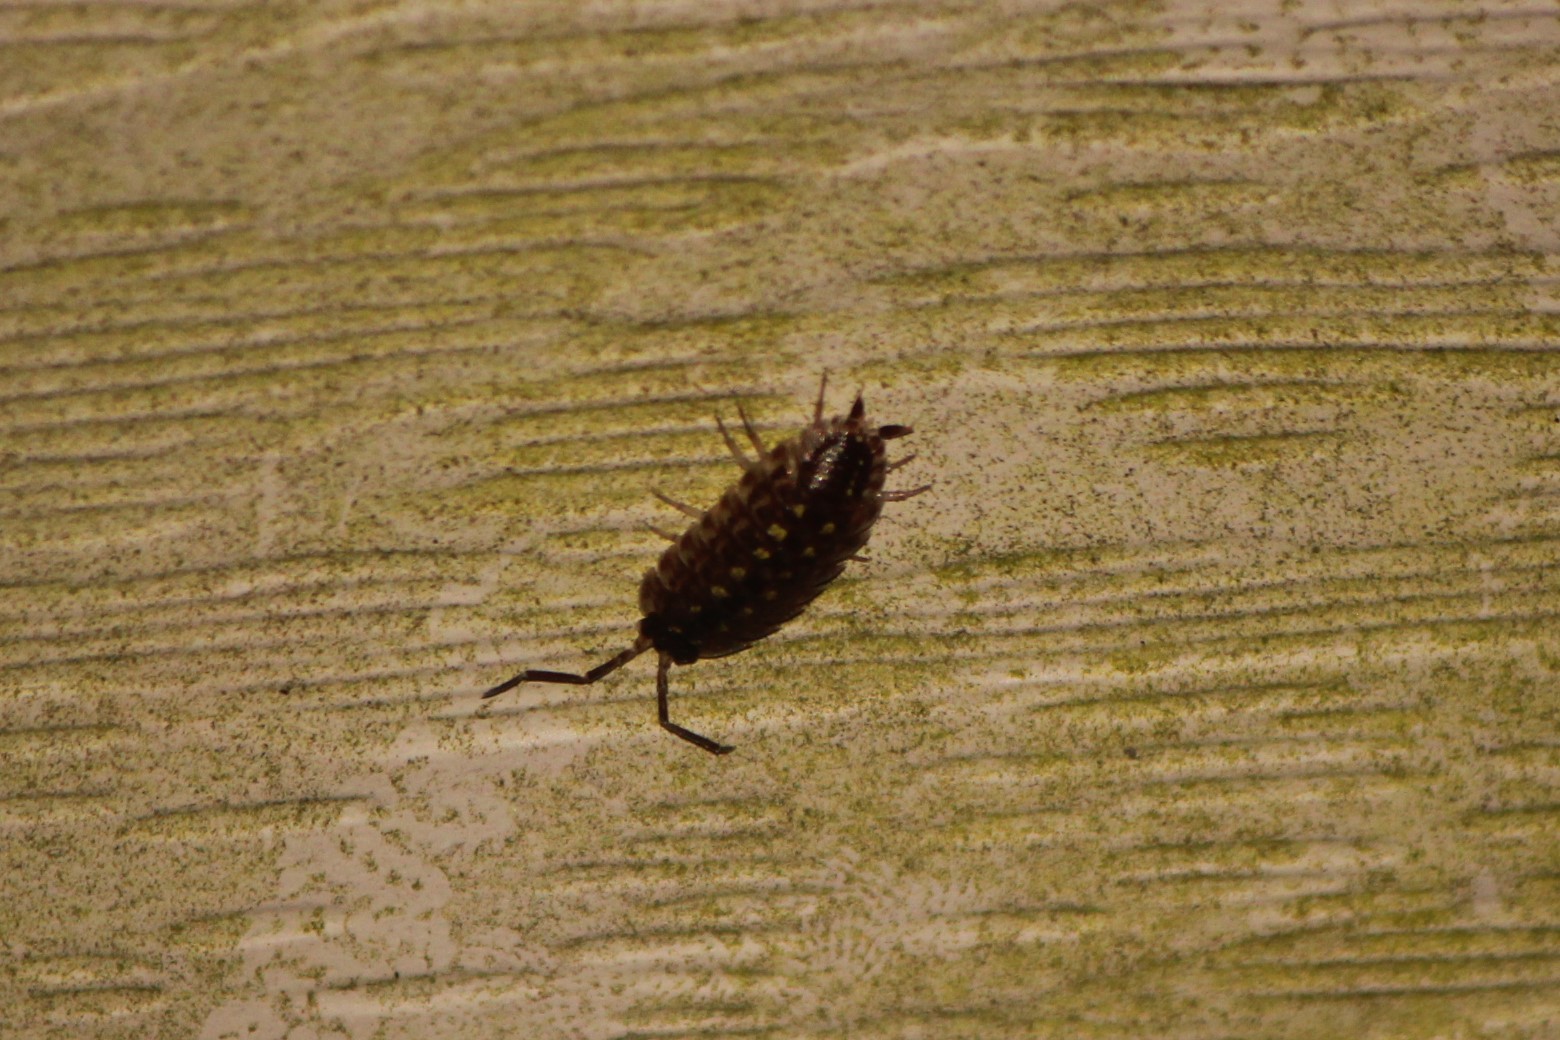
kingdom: Animalia
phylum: Arthropoda
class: Malacostraca
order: Isopoda
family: Porcellionidae
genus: Porcellio
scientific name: Porcellio spinicornis
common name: Painted woodlouse
